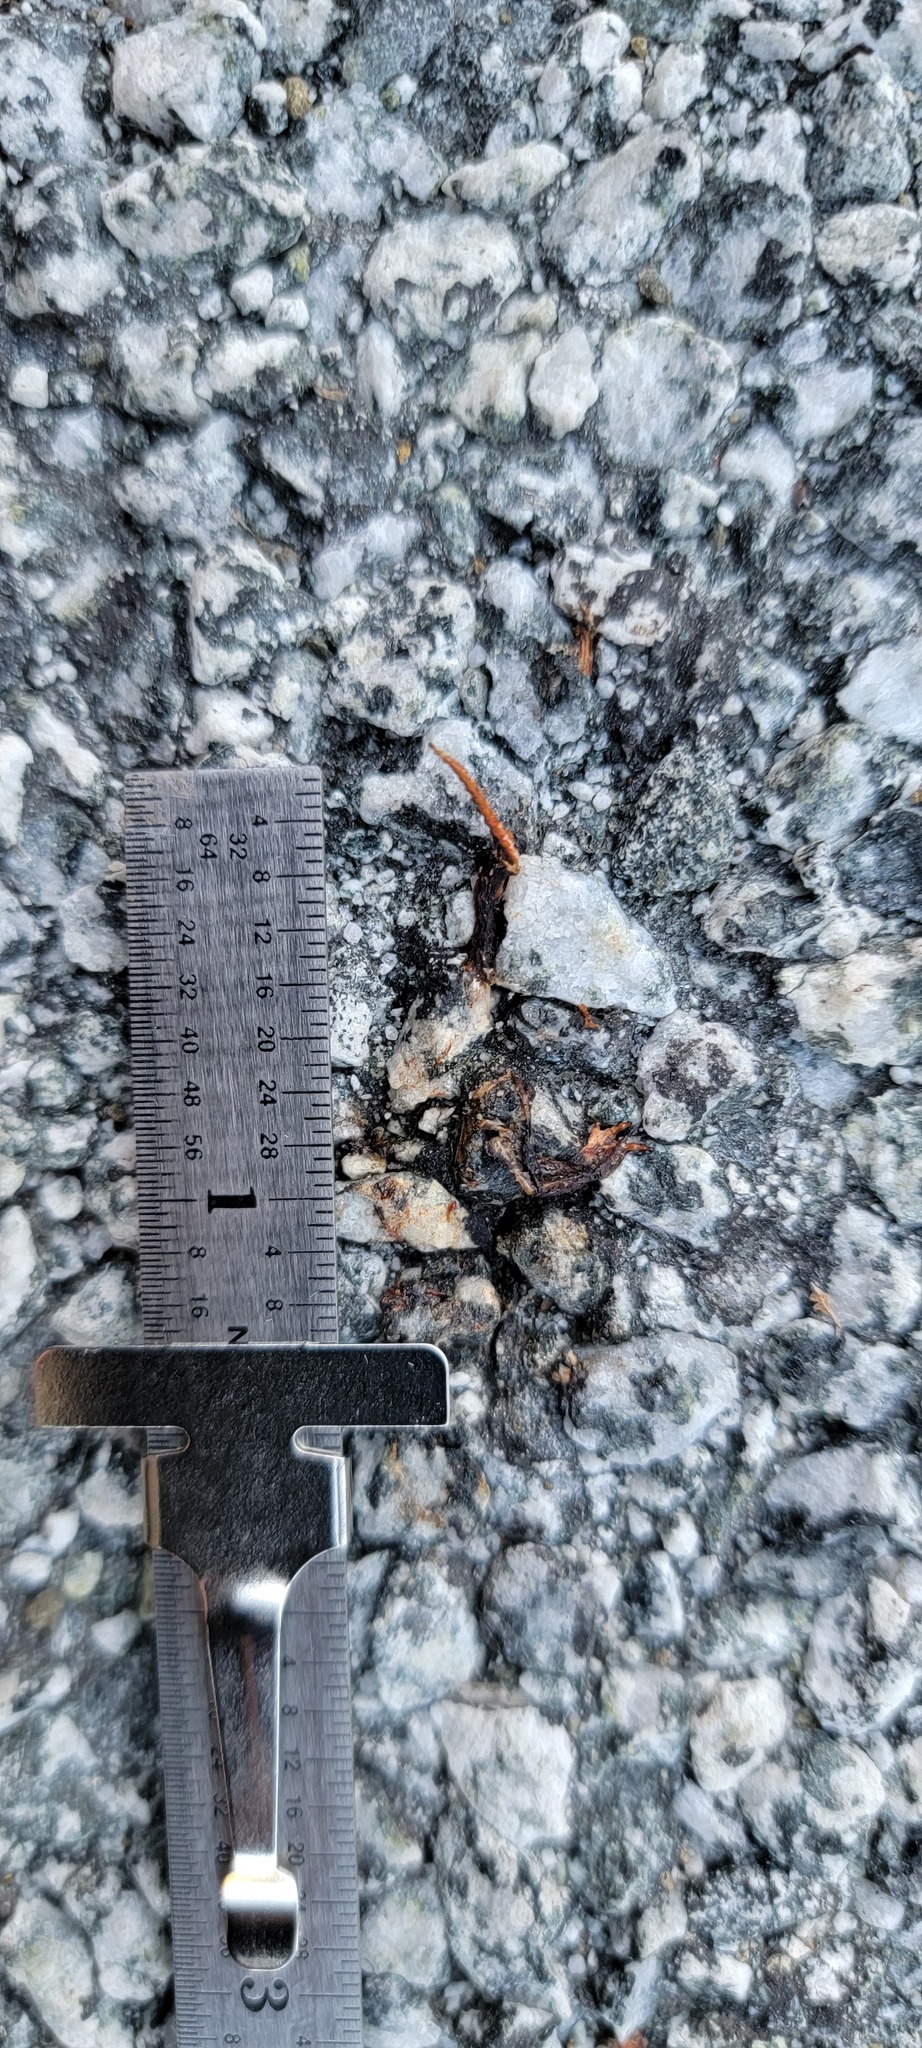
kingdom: Animalia
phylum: Chordata
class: Amphibia
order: Caudata
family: Salamandridae
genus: Taricha
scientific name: Taricha
